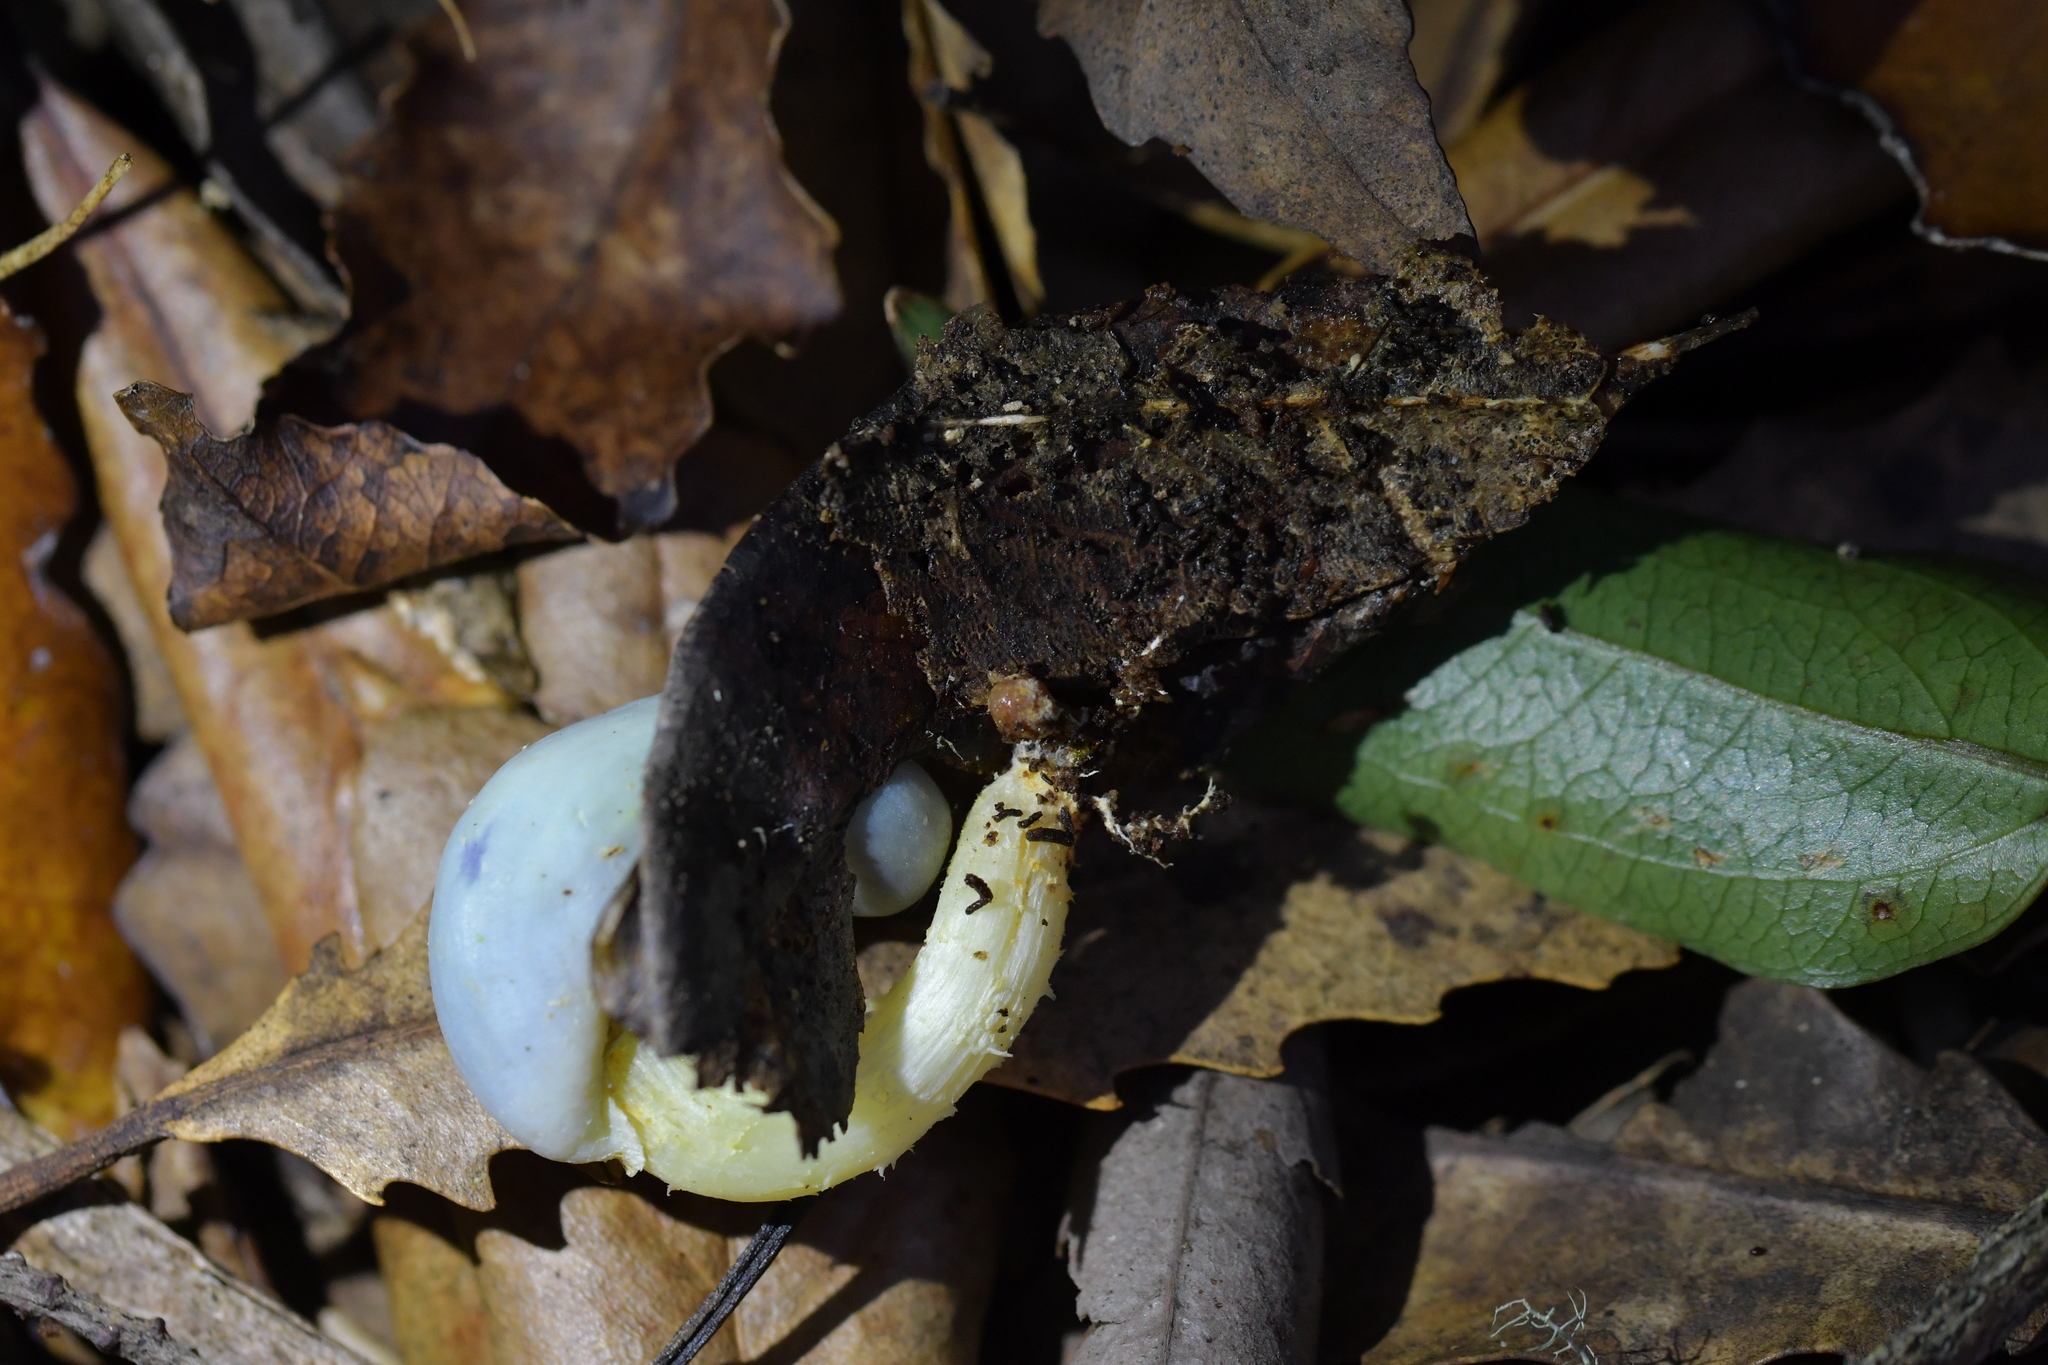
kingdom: Fungi
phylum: Basidiomycota
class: Agaricomycetes
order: Agaricales
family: Agaricaceae
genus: Clavogaster
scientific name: Clavogaster virescens
